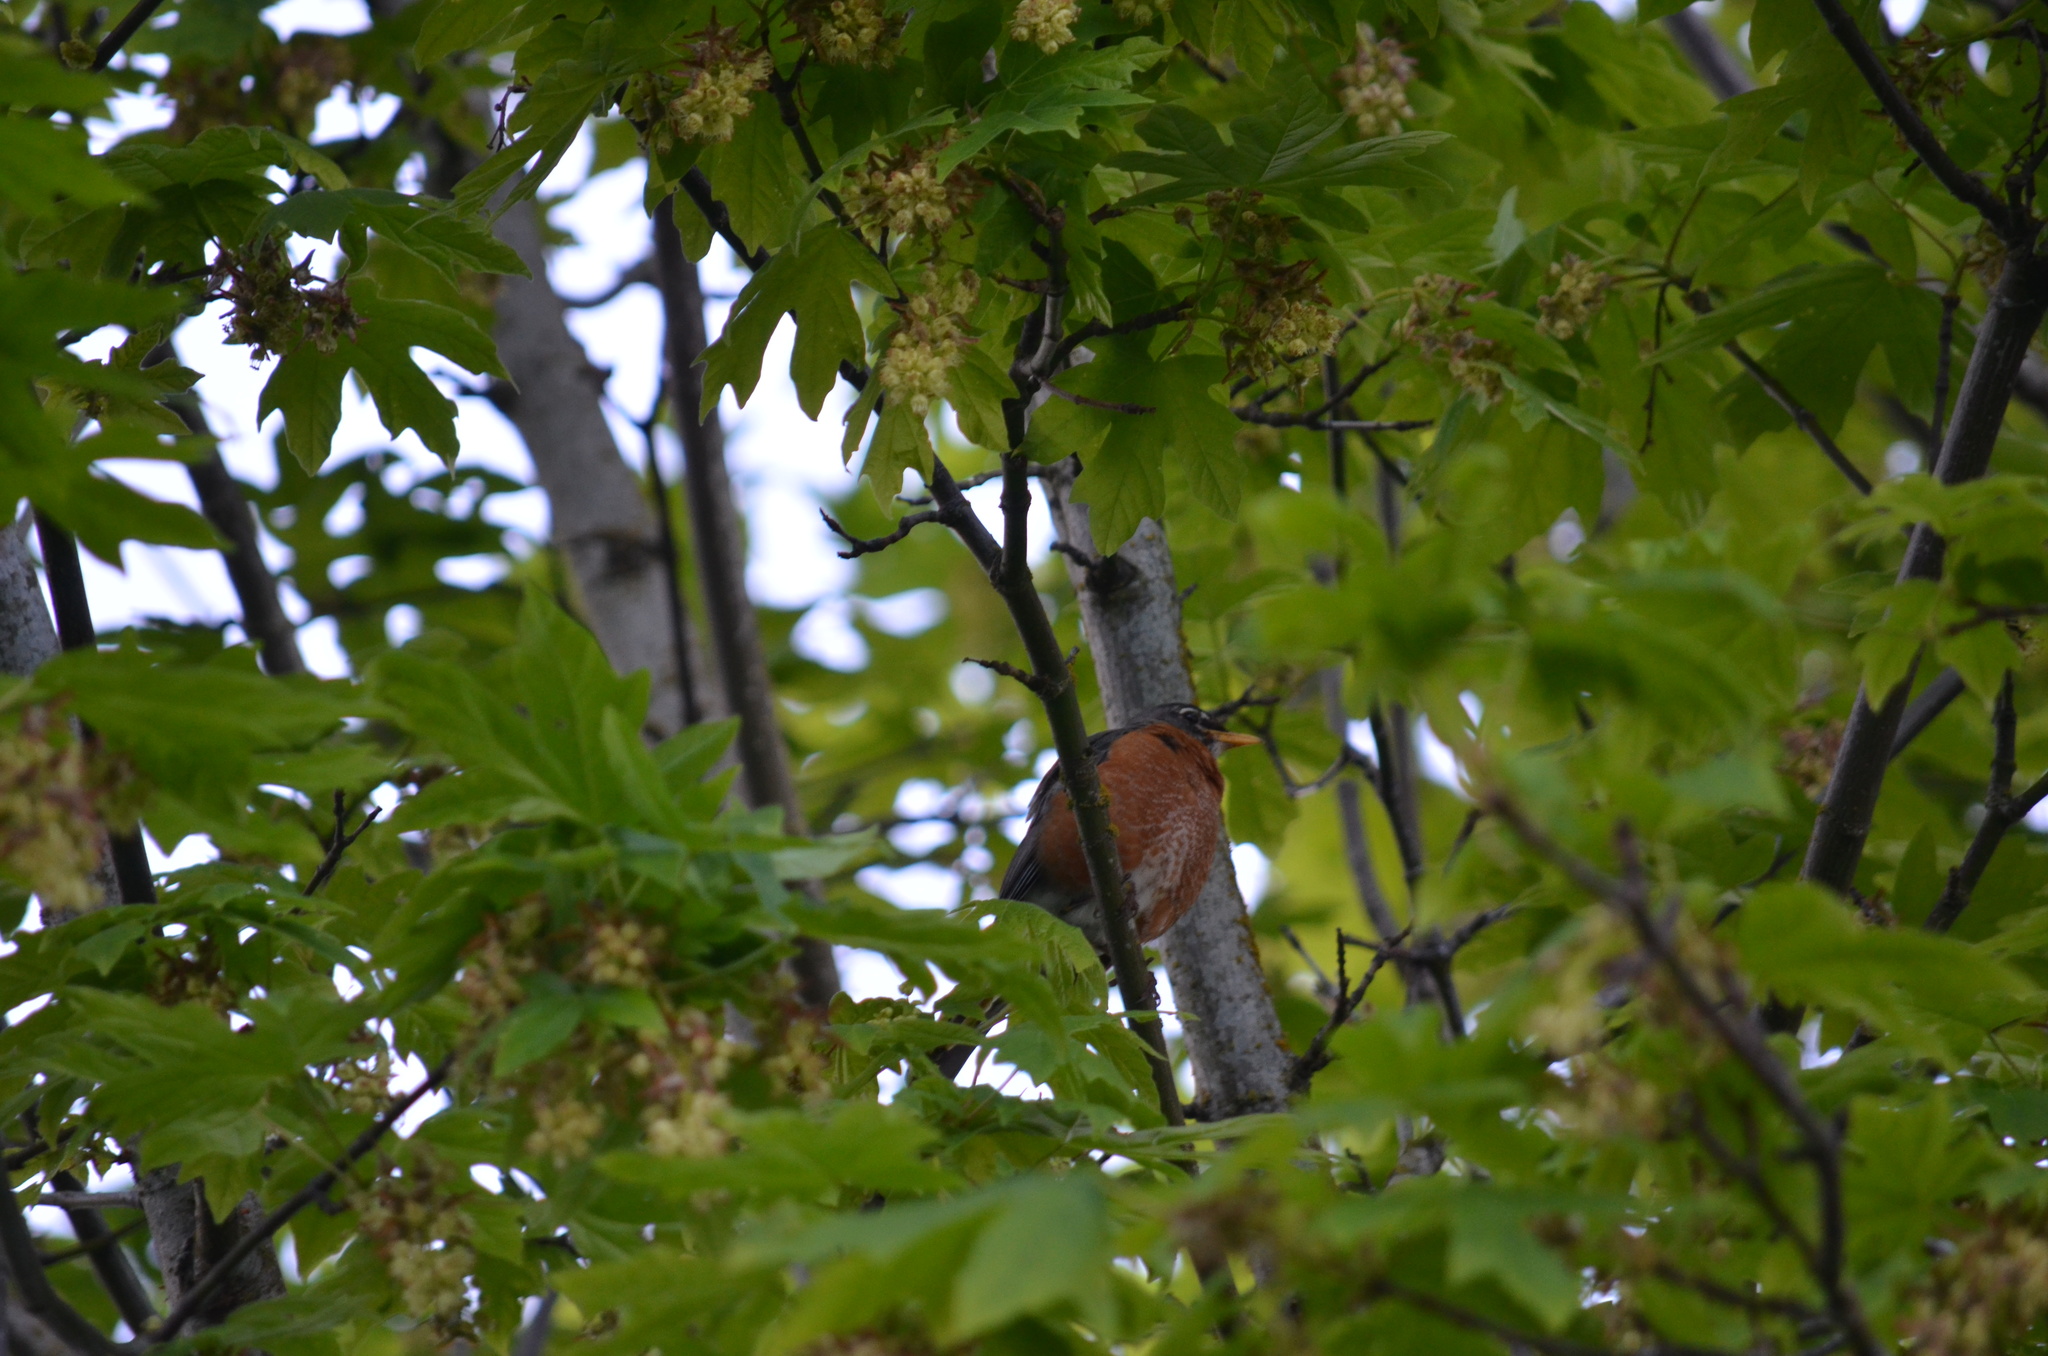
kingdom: Animalia
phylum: Chordata
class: Aves
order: Passeriformes
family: Turdidae
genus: Turdus
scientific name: Turdus migratorius
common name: American robin
